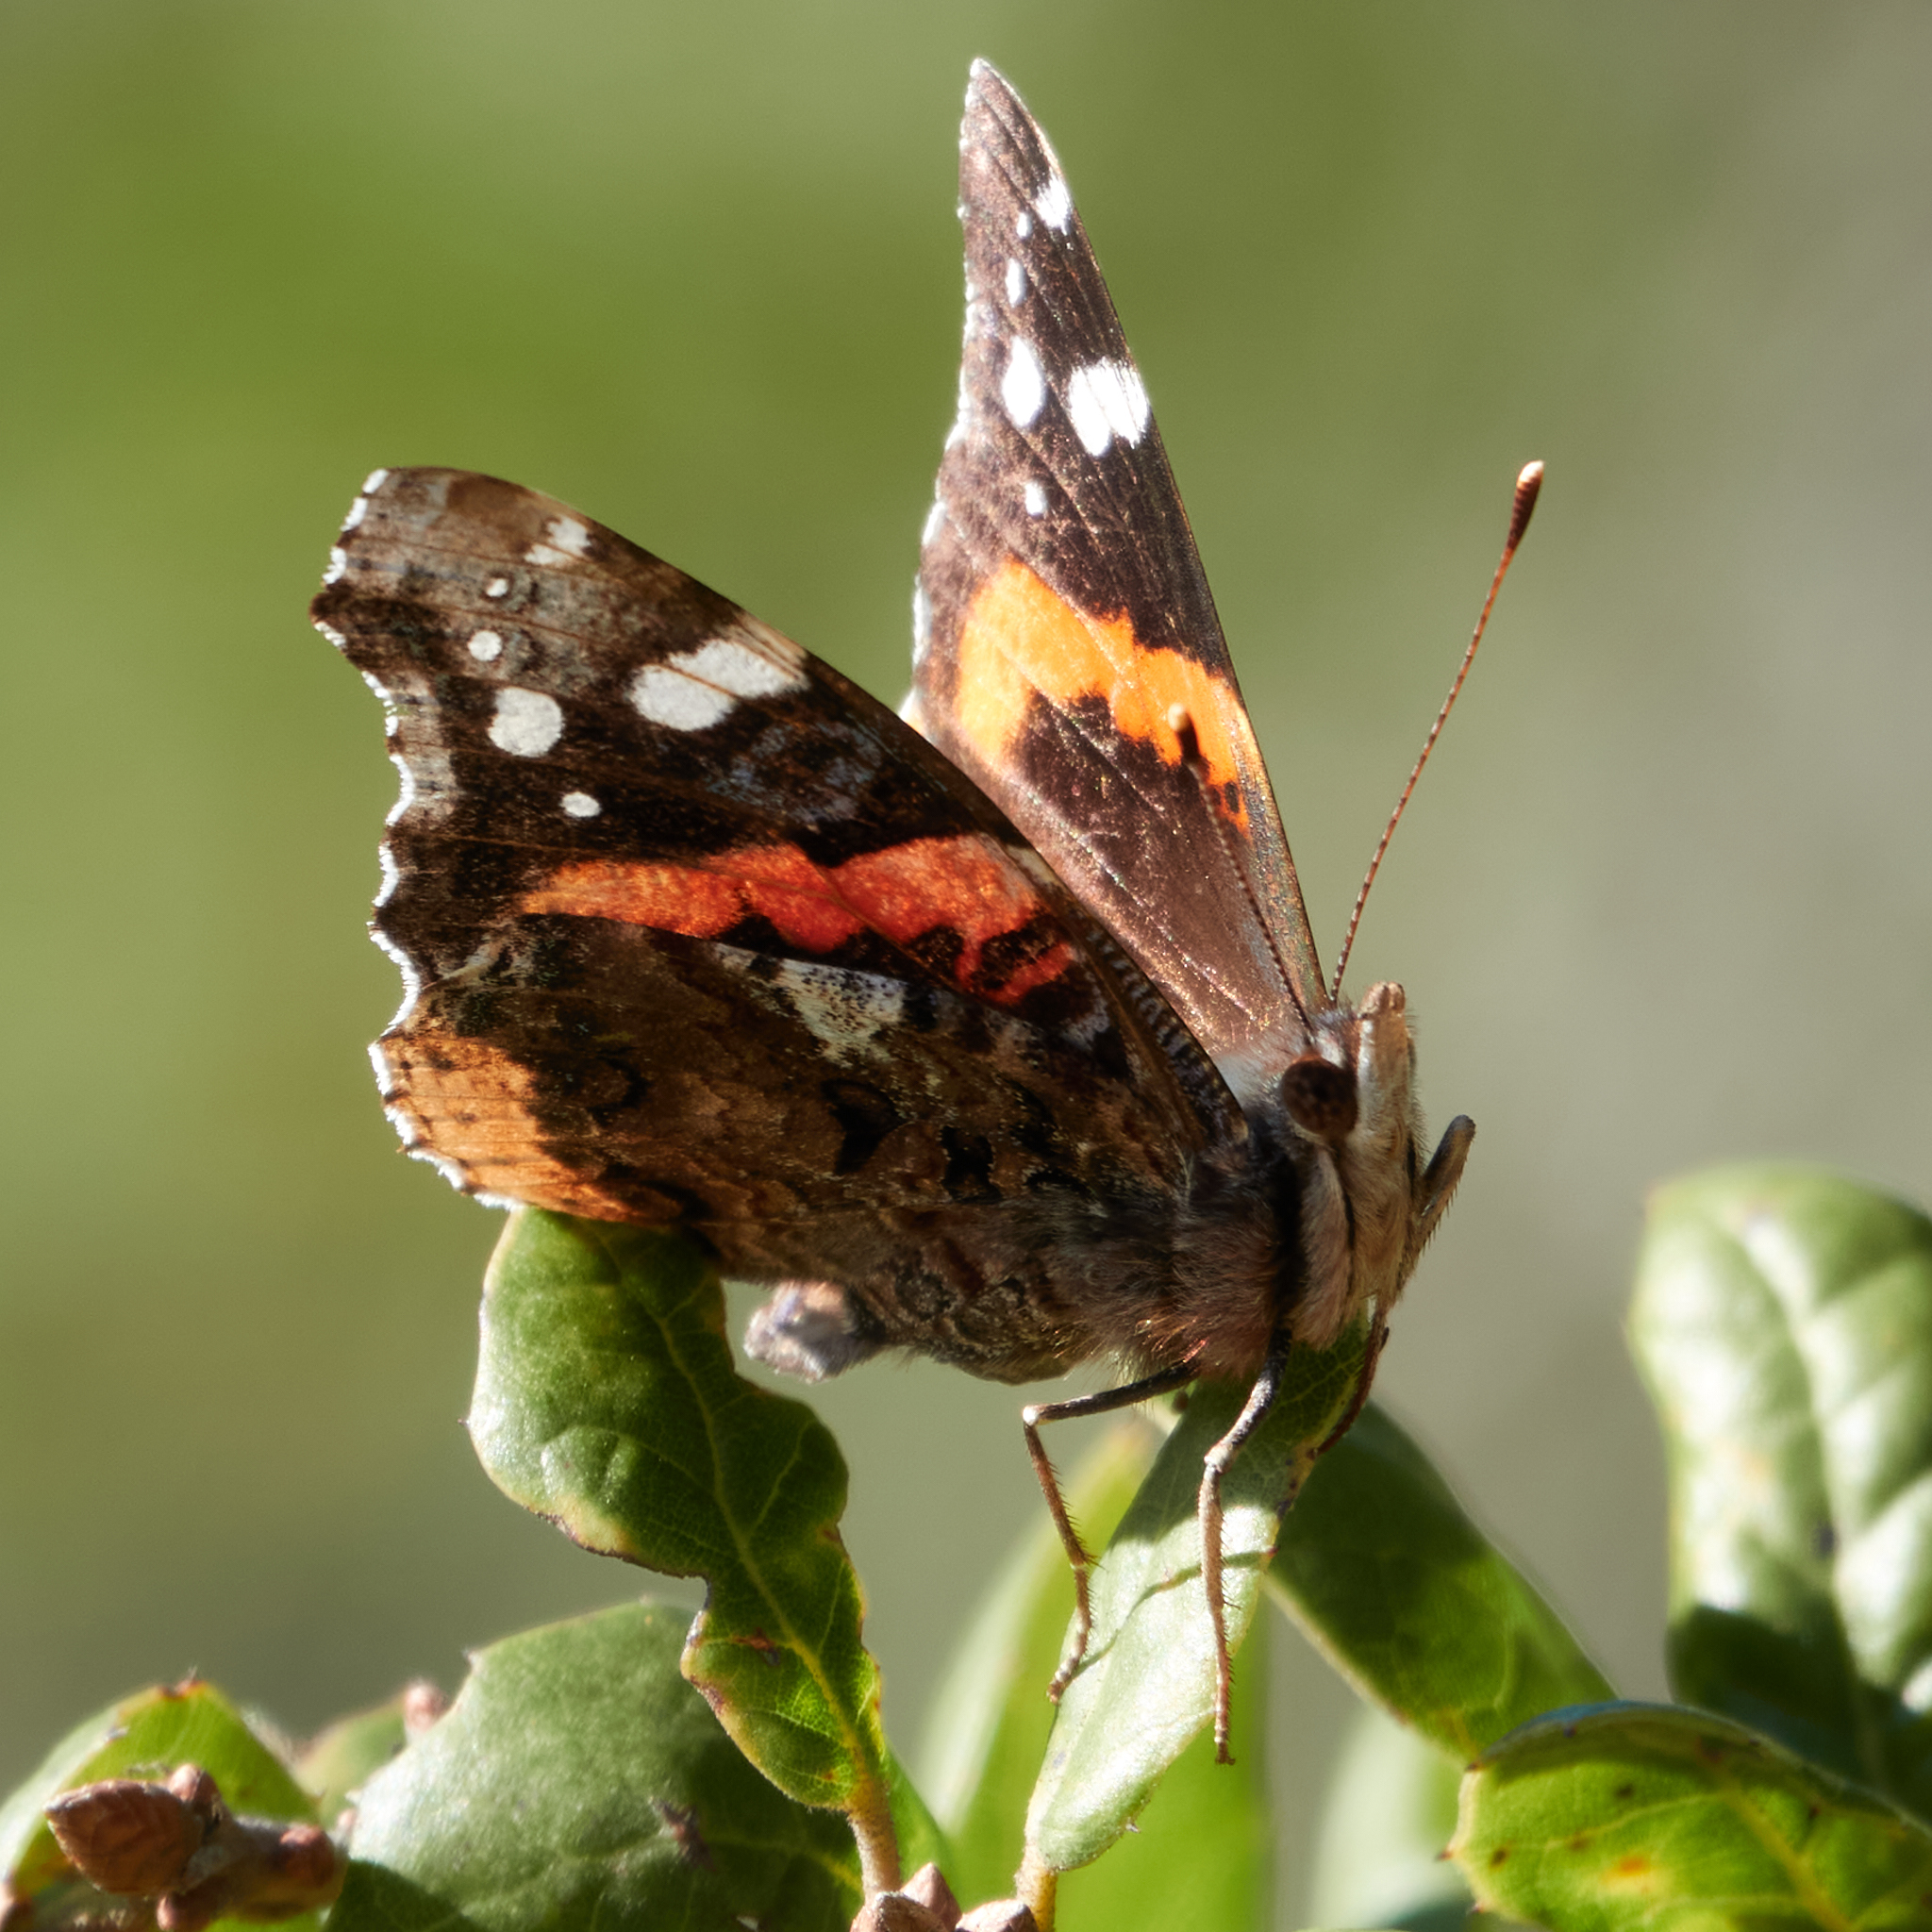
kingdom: Animalia
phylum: Arthropoda
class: Insecta
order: Lepidoptera
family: Nymphalidae
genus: Vanessa
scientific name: Vanessa atalanta
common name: Red admiral
